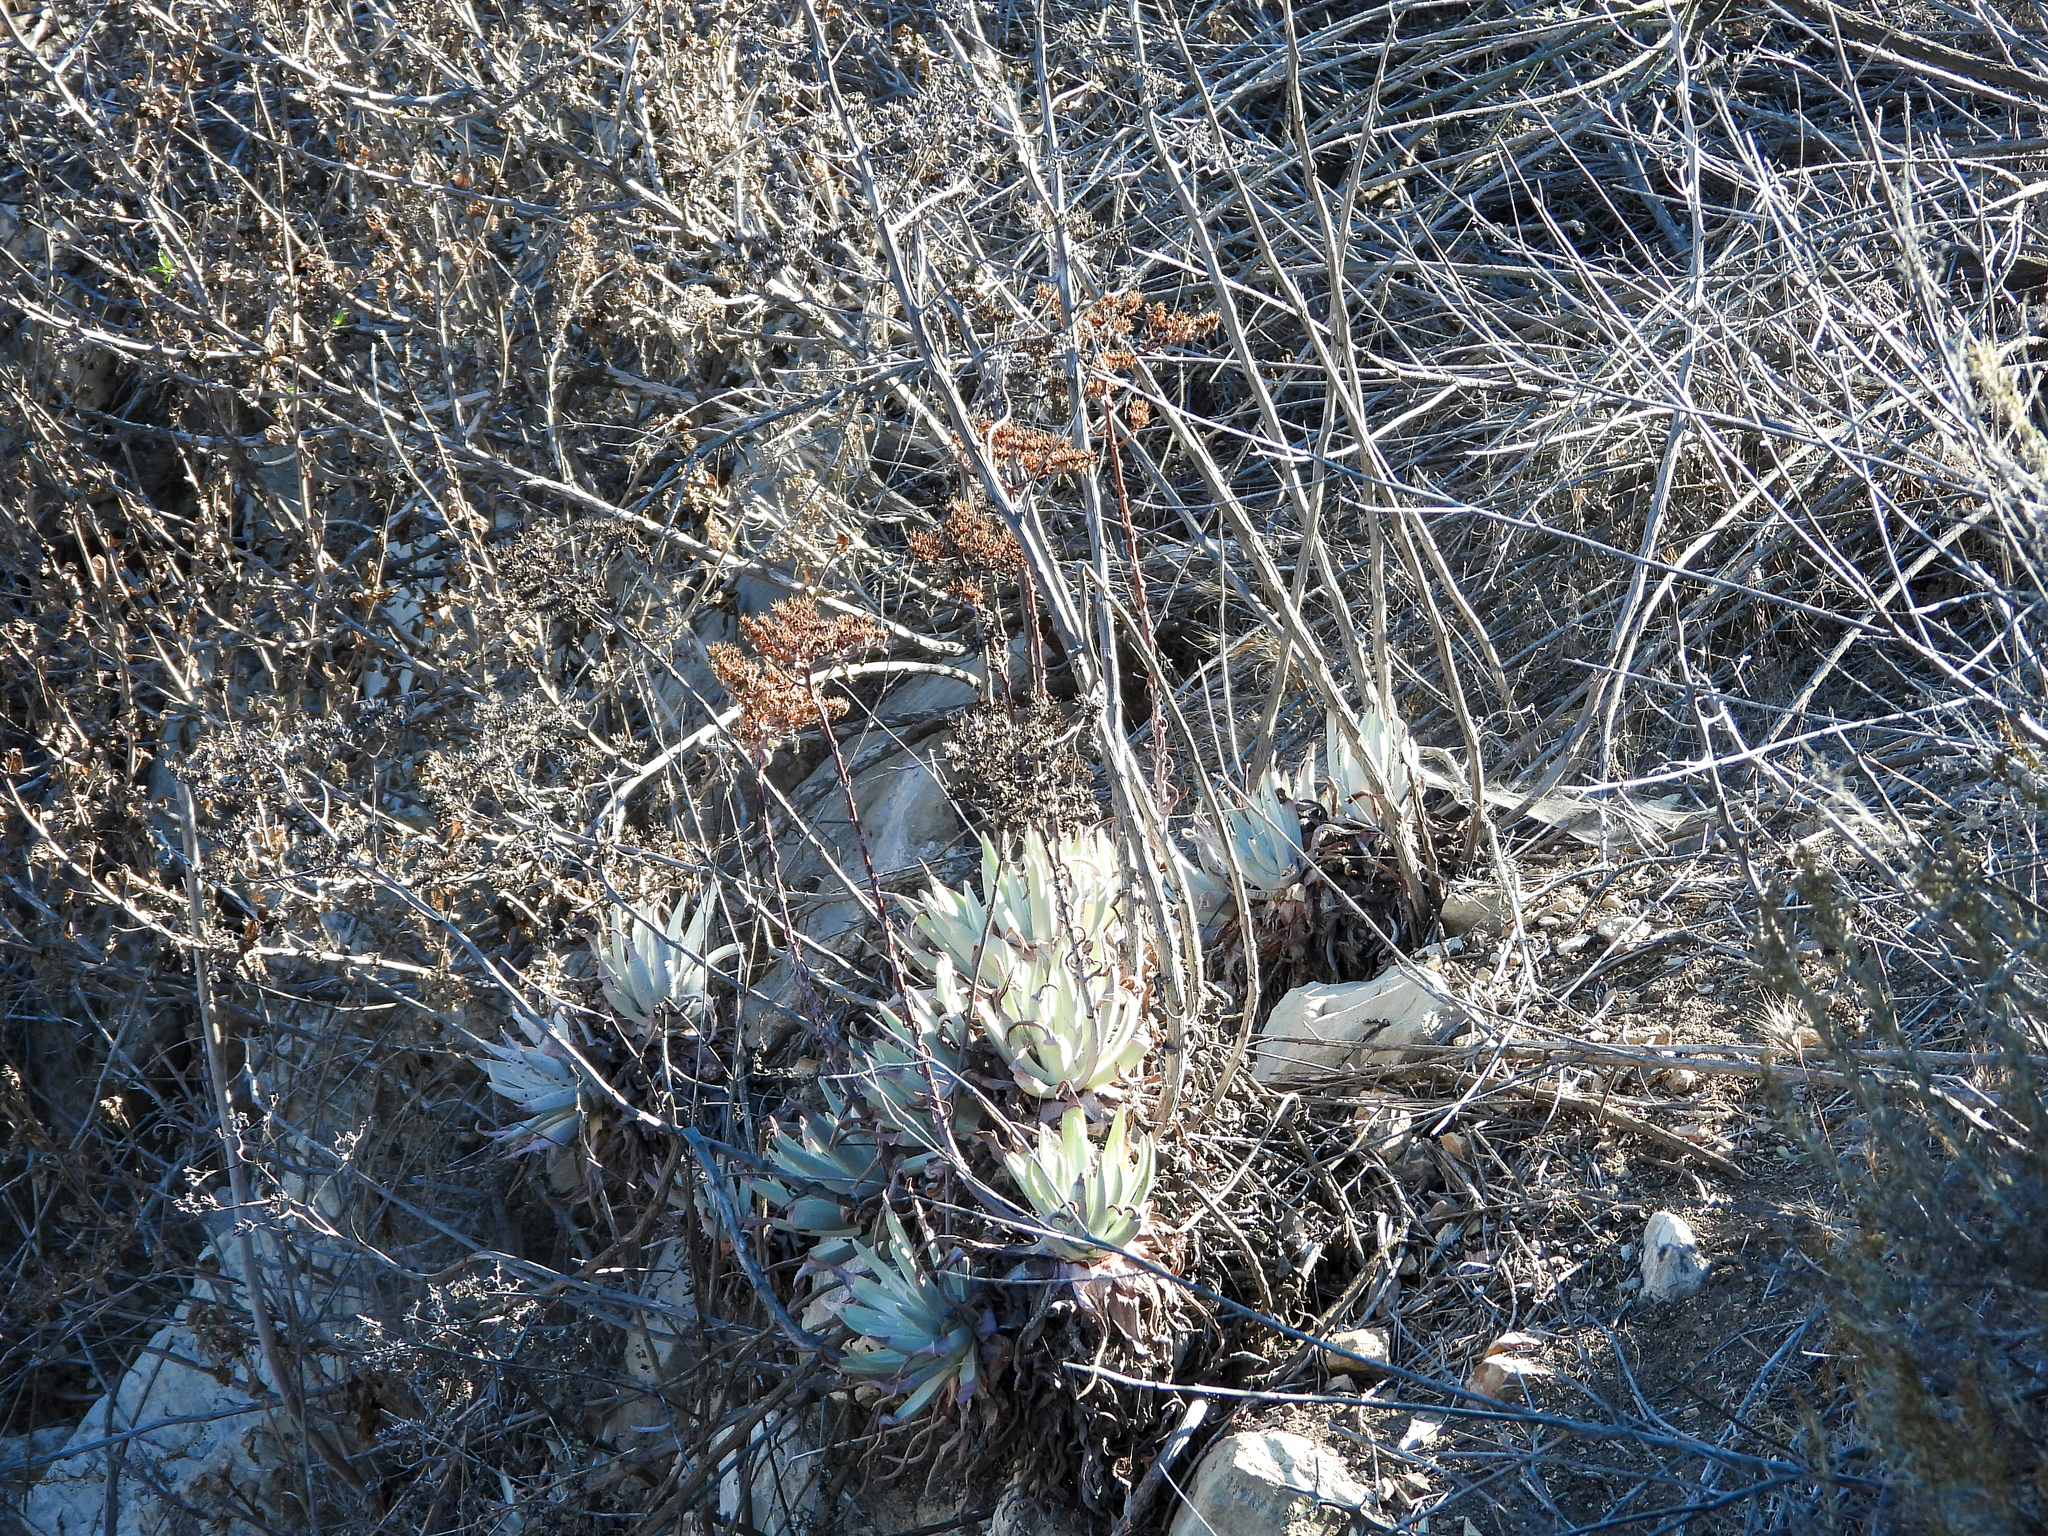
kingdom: Plantae
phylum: Tracheophyta
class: Magnoliopsida
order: Saxifragales
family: Crassulaceae
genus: Dudleya
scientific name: Dudleya virens
